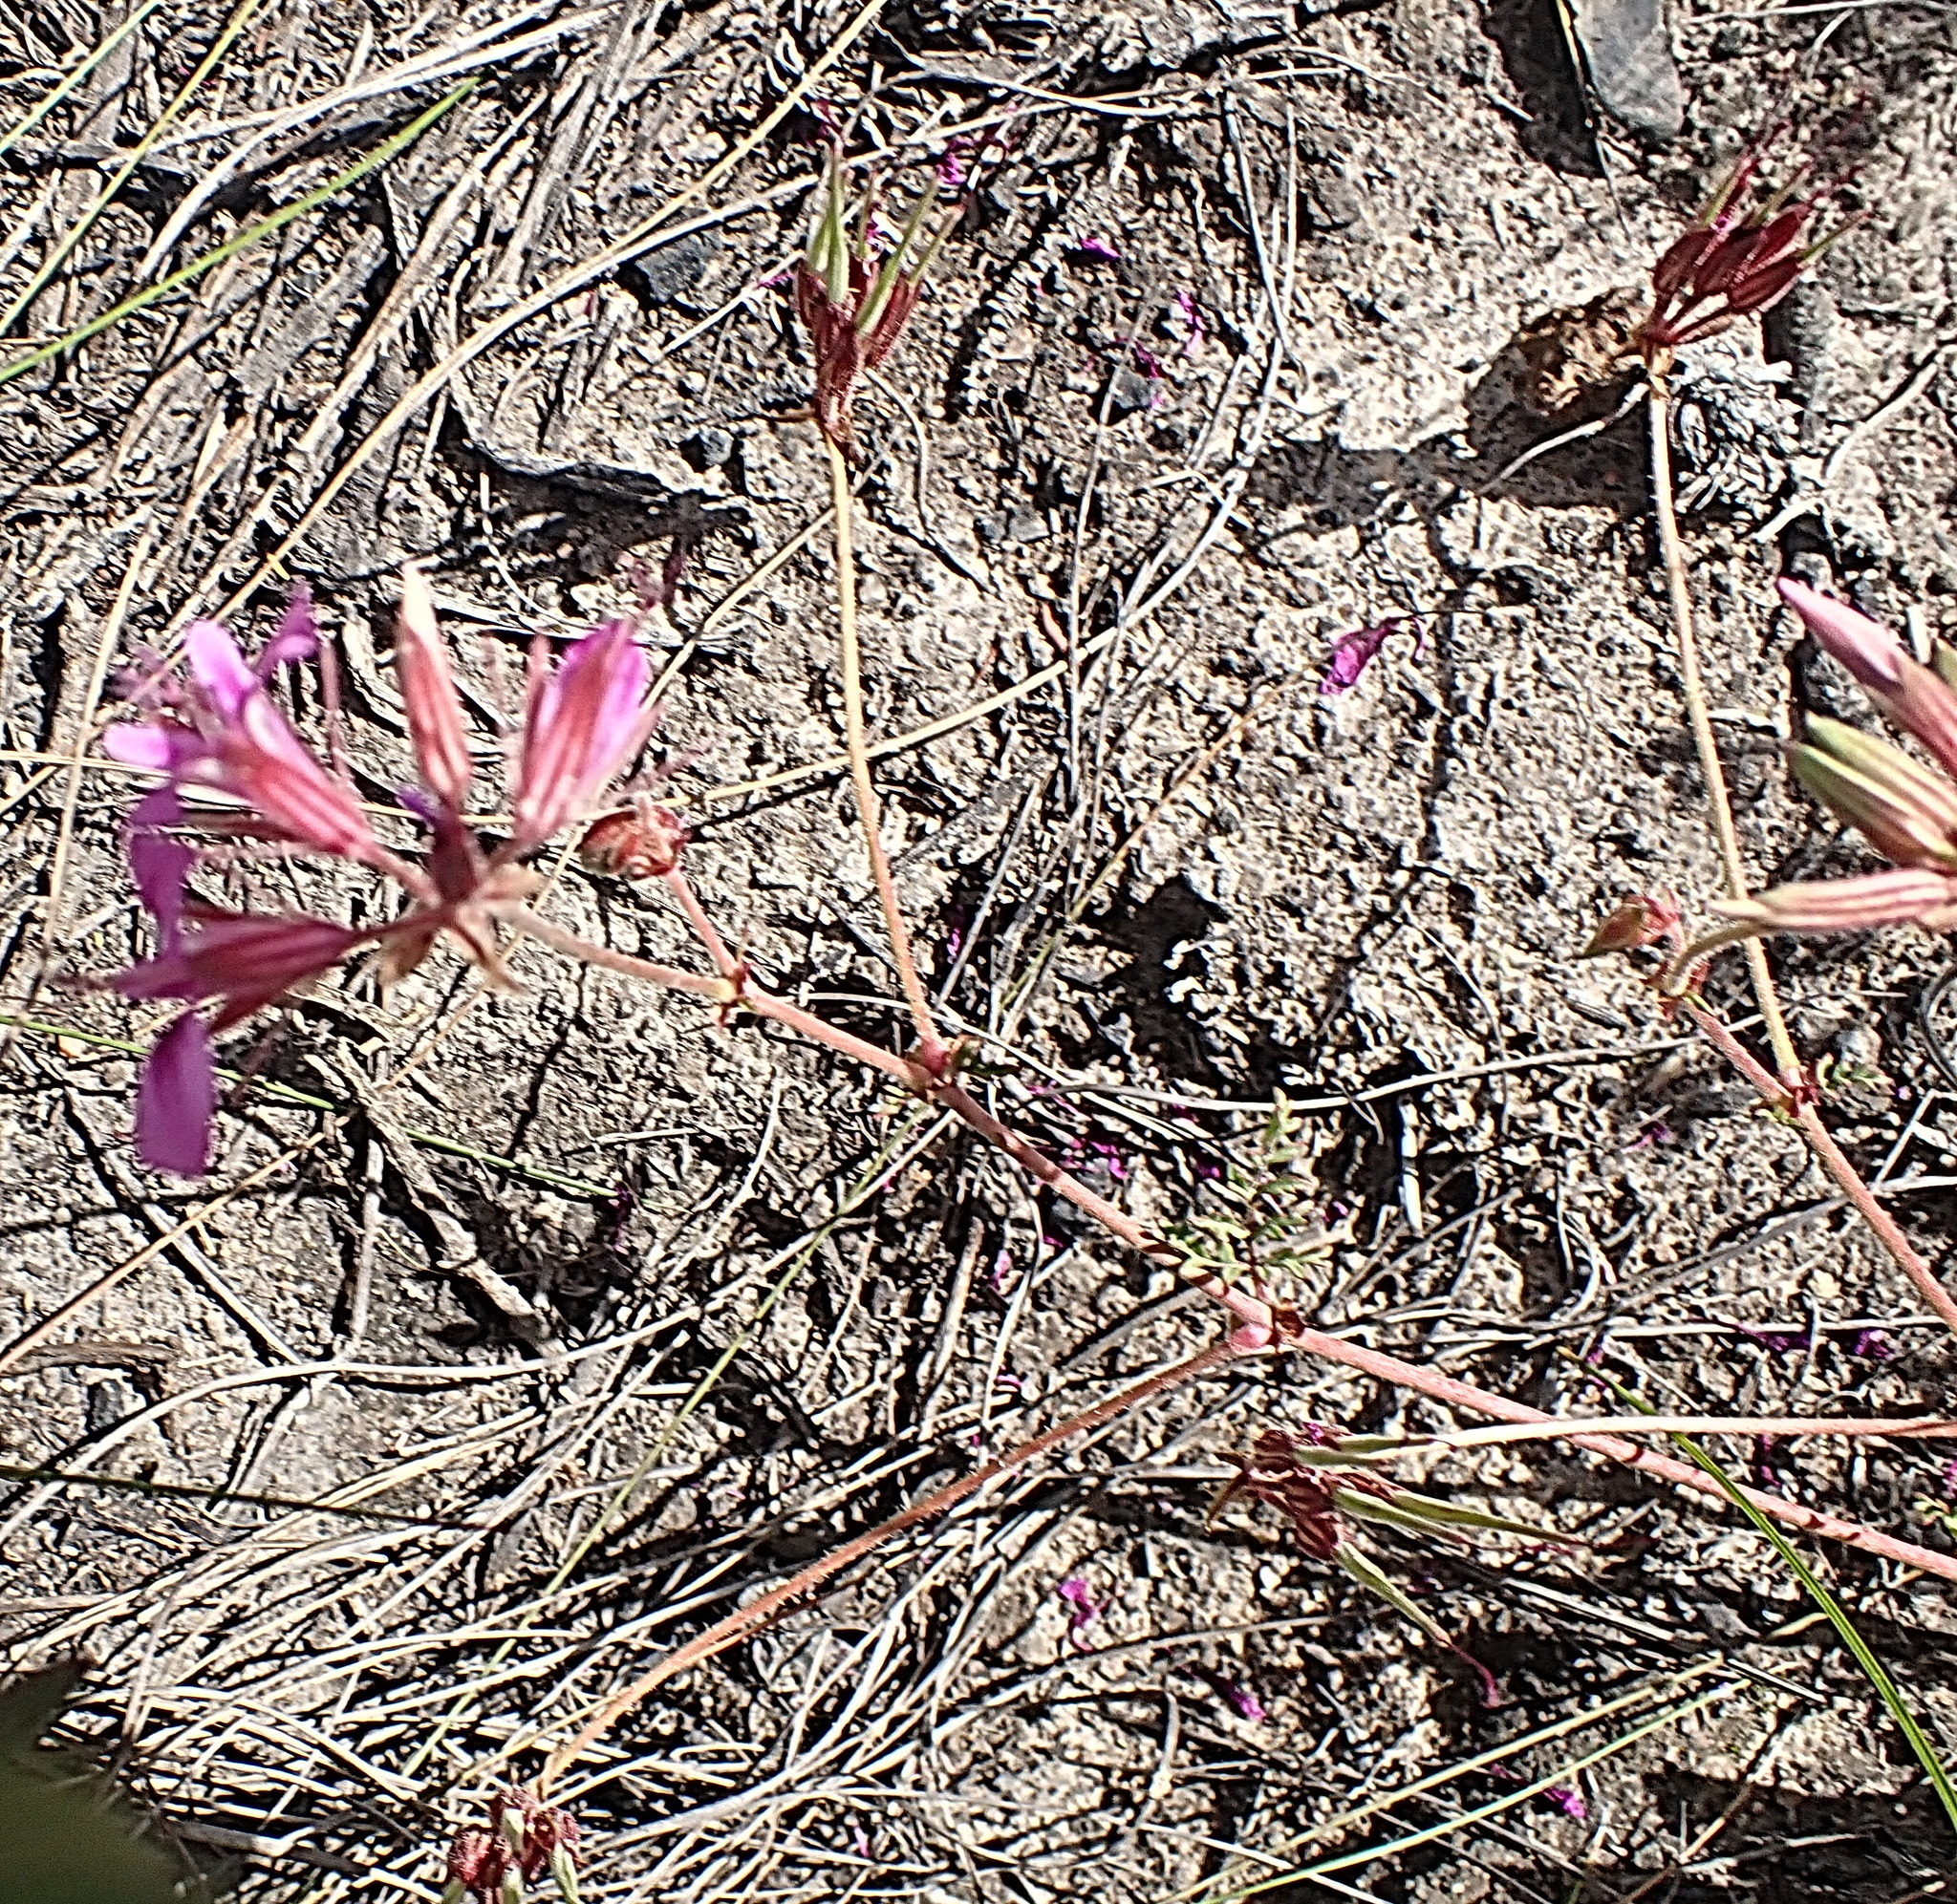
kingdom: Plantae
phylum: Tracheophyta
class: Magnoliopsida
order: Geraniales
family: Geraniaceae
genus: Pelargonium
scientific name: Pelargonium multicaule
